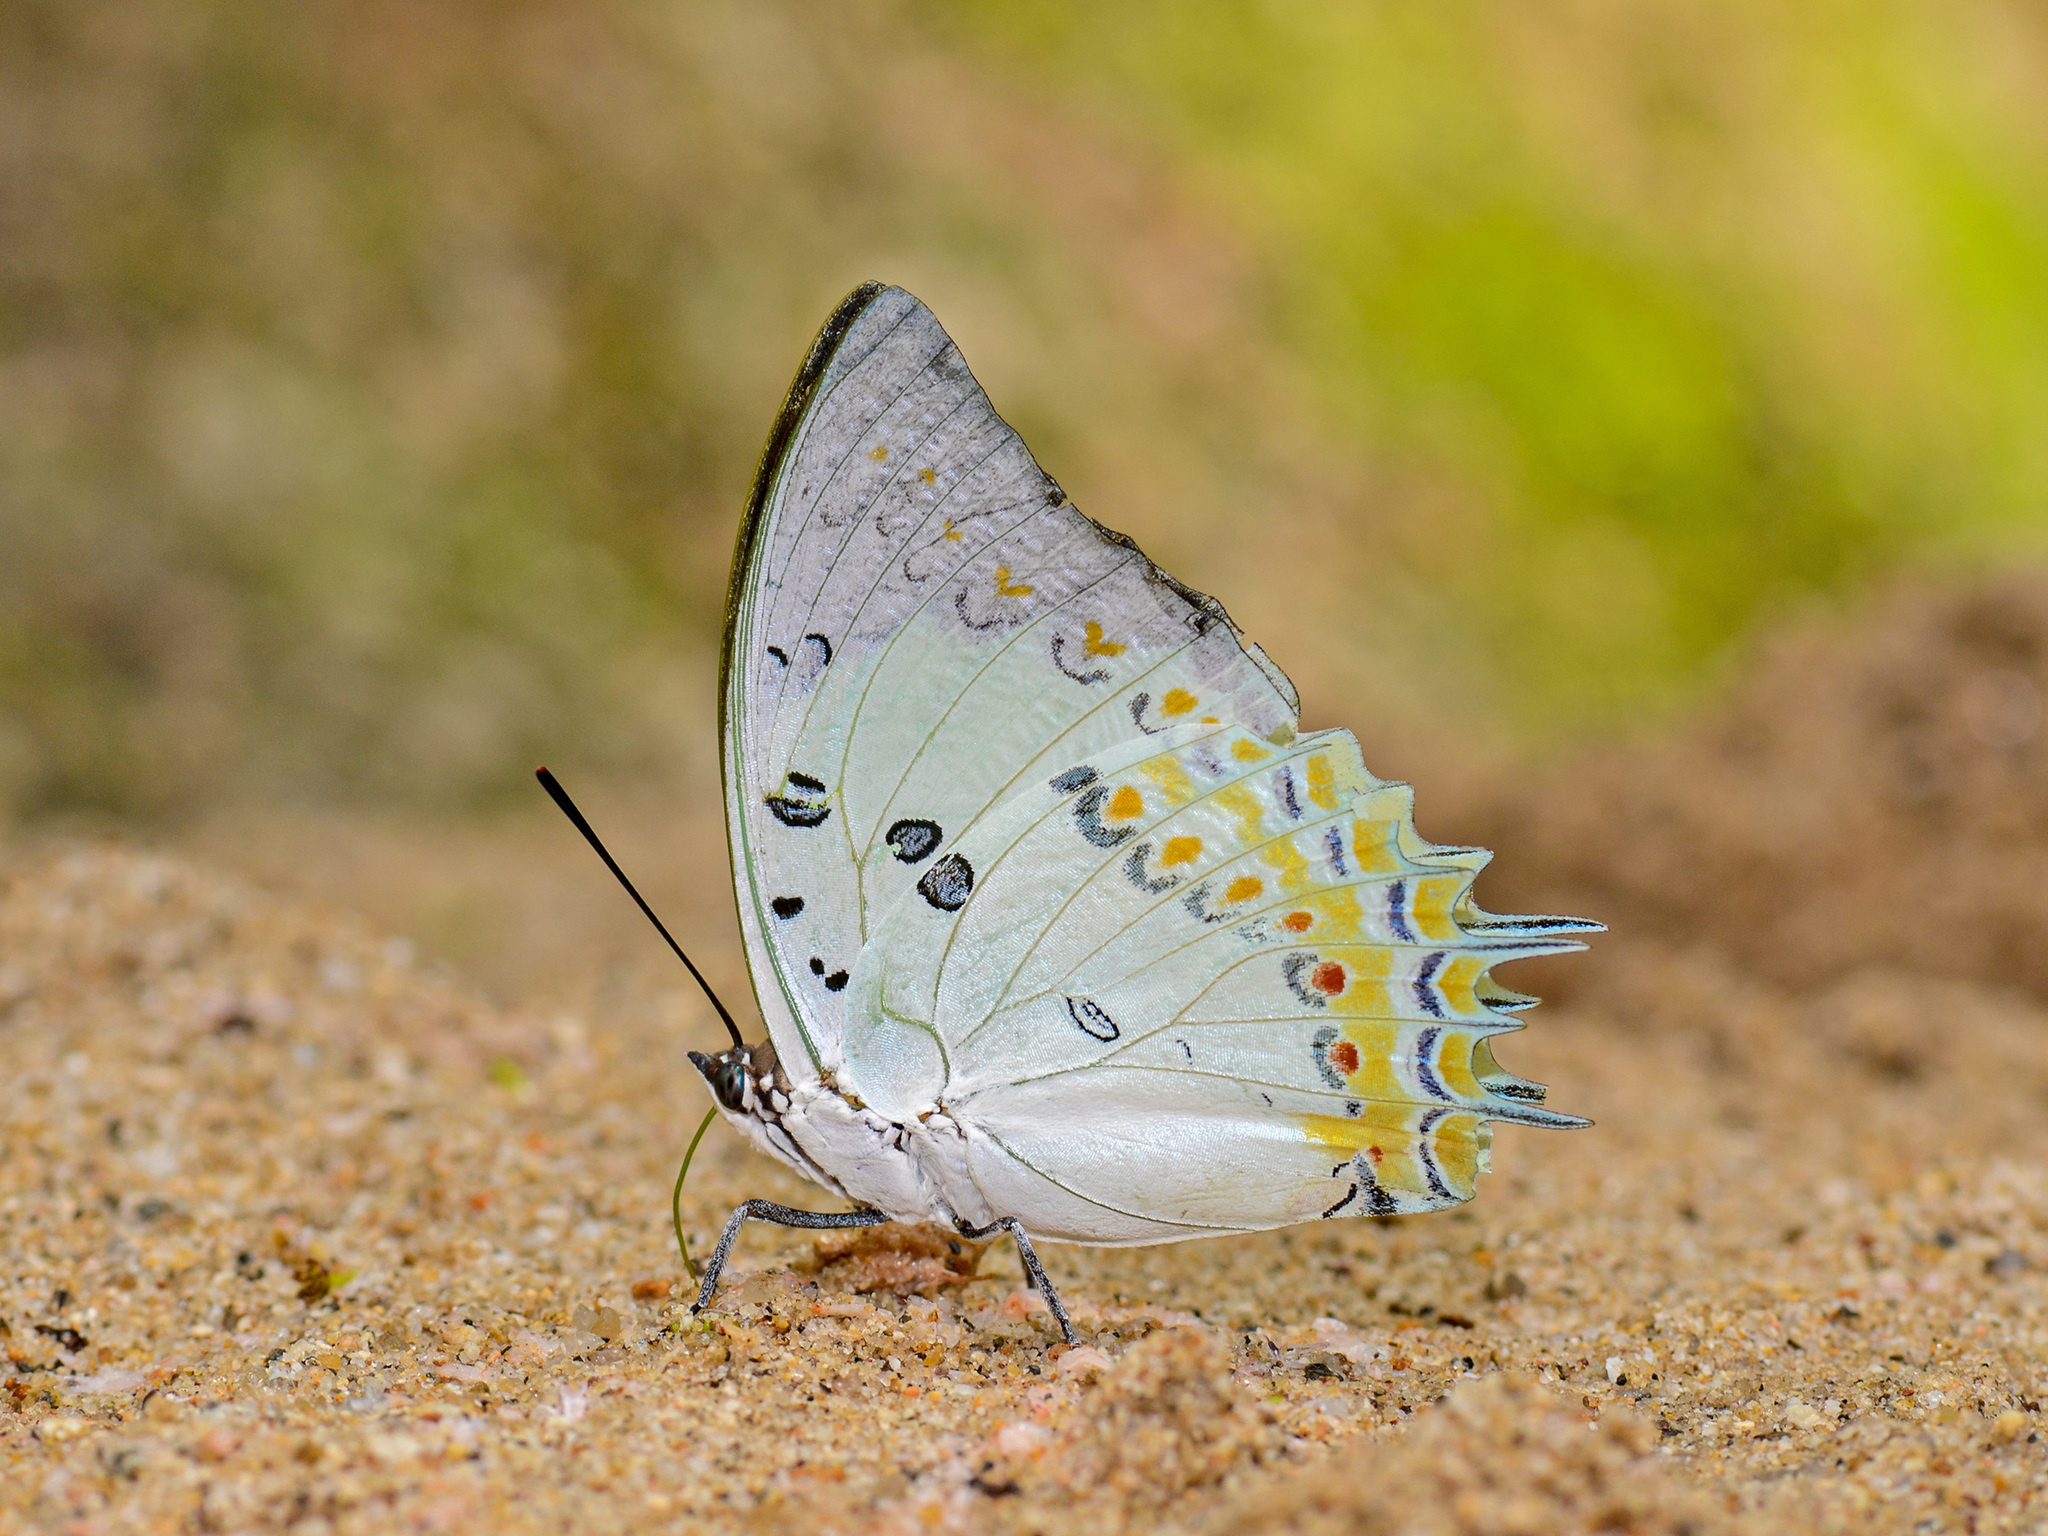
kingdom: Animalia
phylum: Arthropoda
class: Insecta
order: Lepidoptera
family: Nymphalidae
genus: Polyura
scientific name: Polyura delphis
